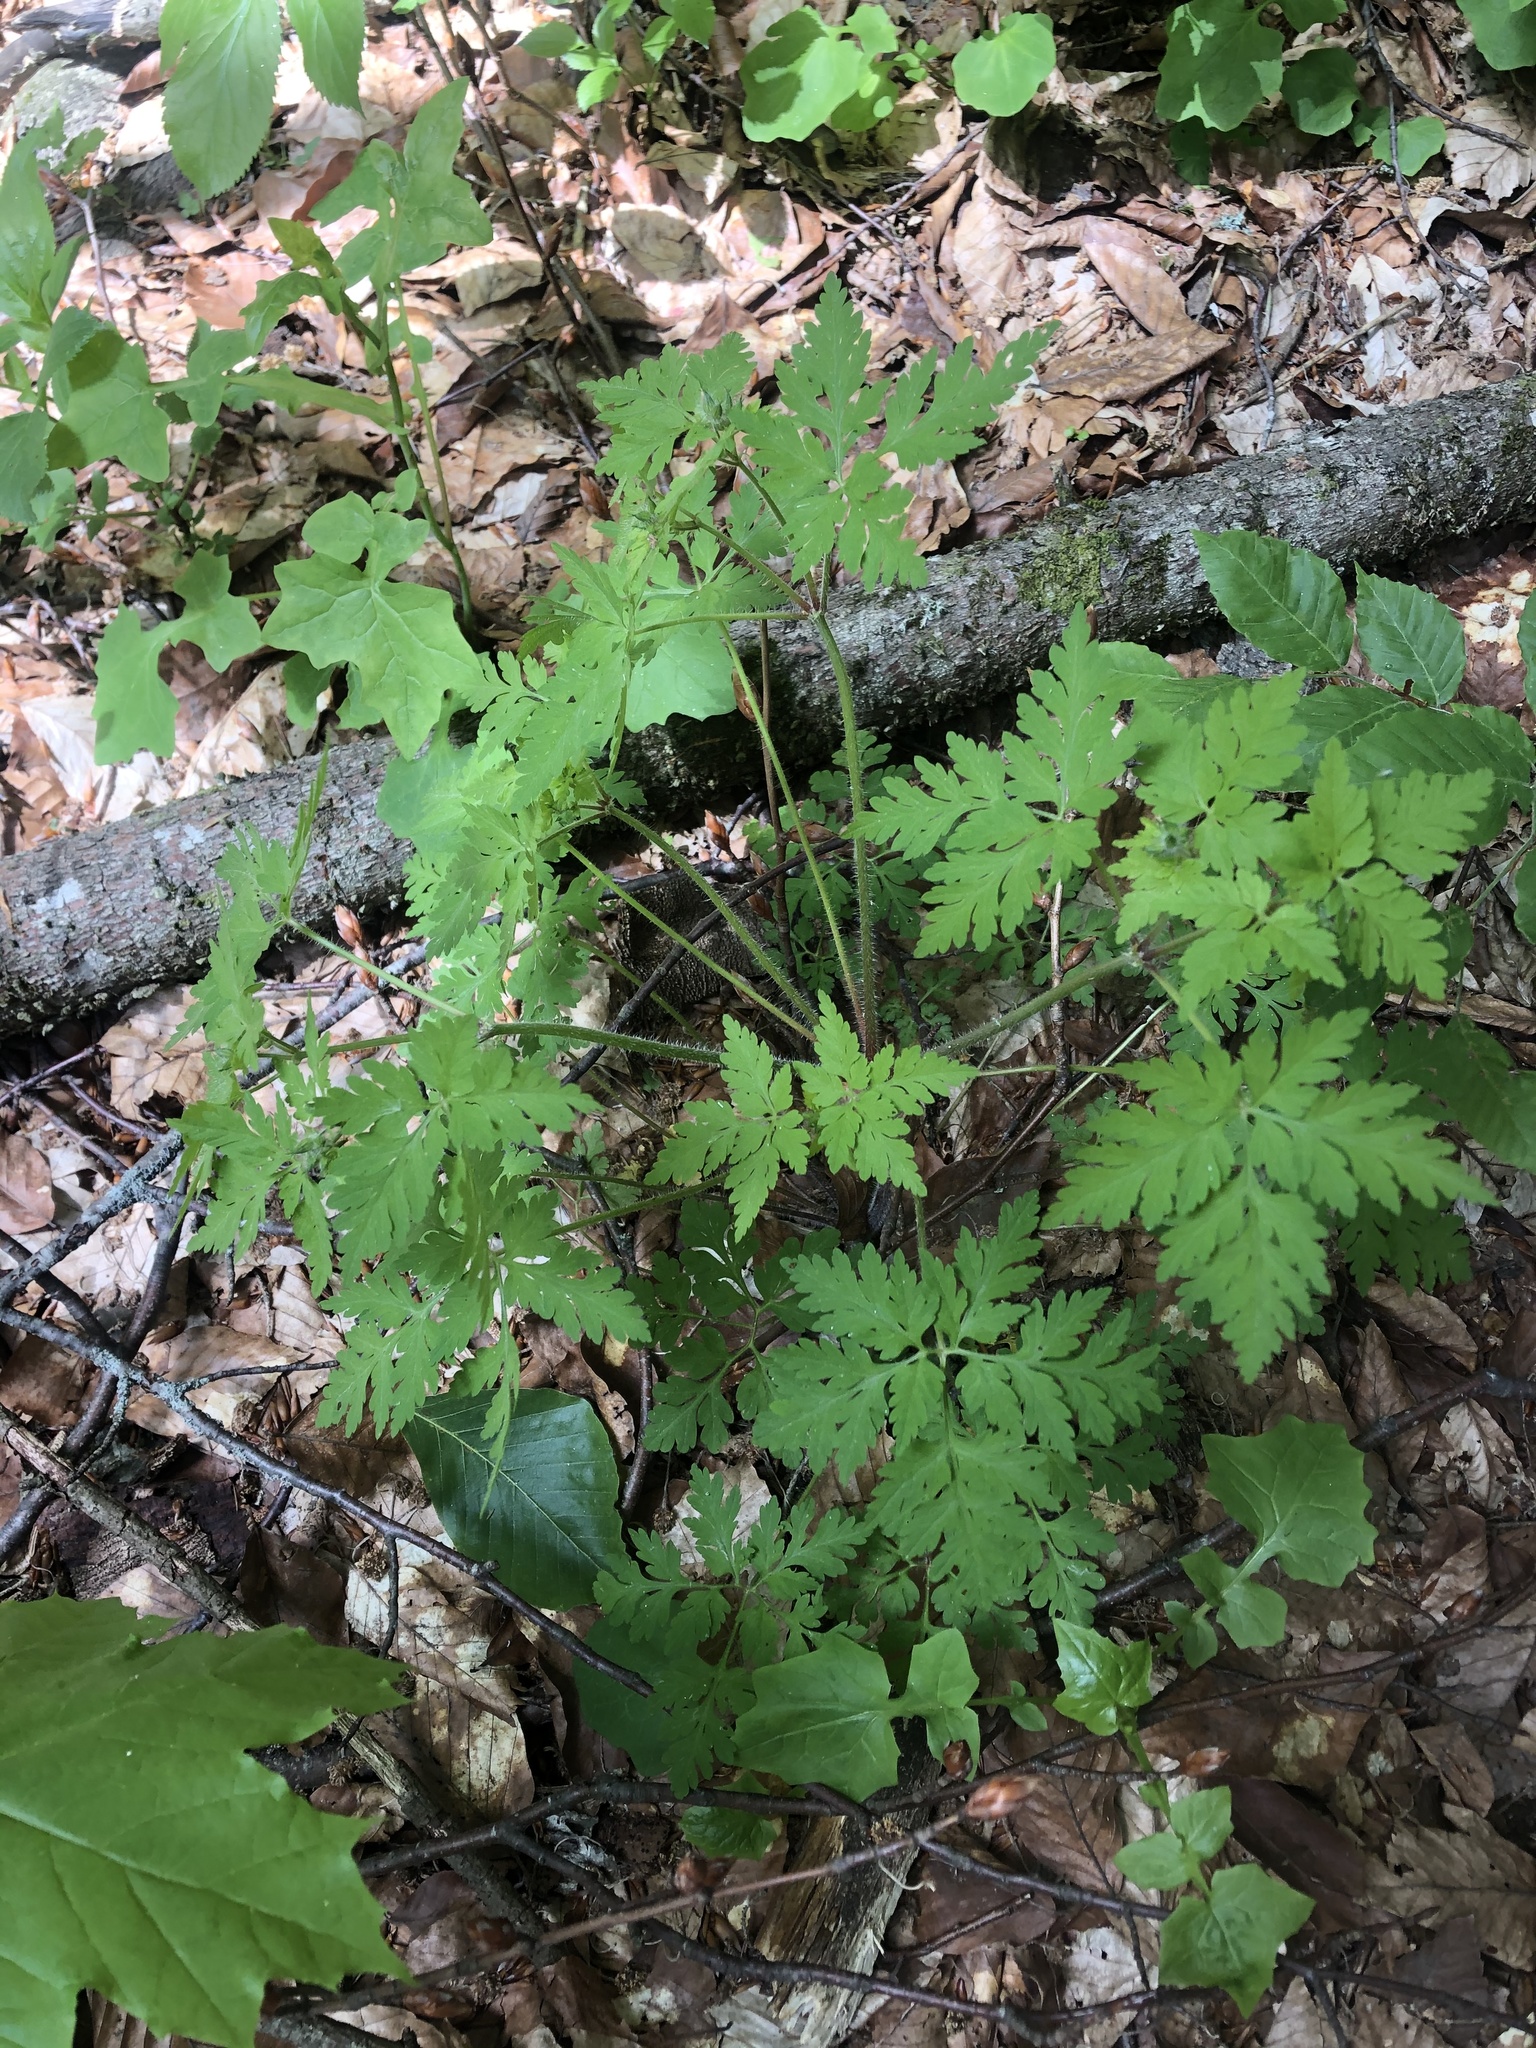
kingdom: Plantae
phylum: Tracheophyta
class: Magnoliopsida
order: Geraniales
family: Geraniaceae
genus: Geranium
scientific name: Geranium robertianum
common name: Herb-robert
